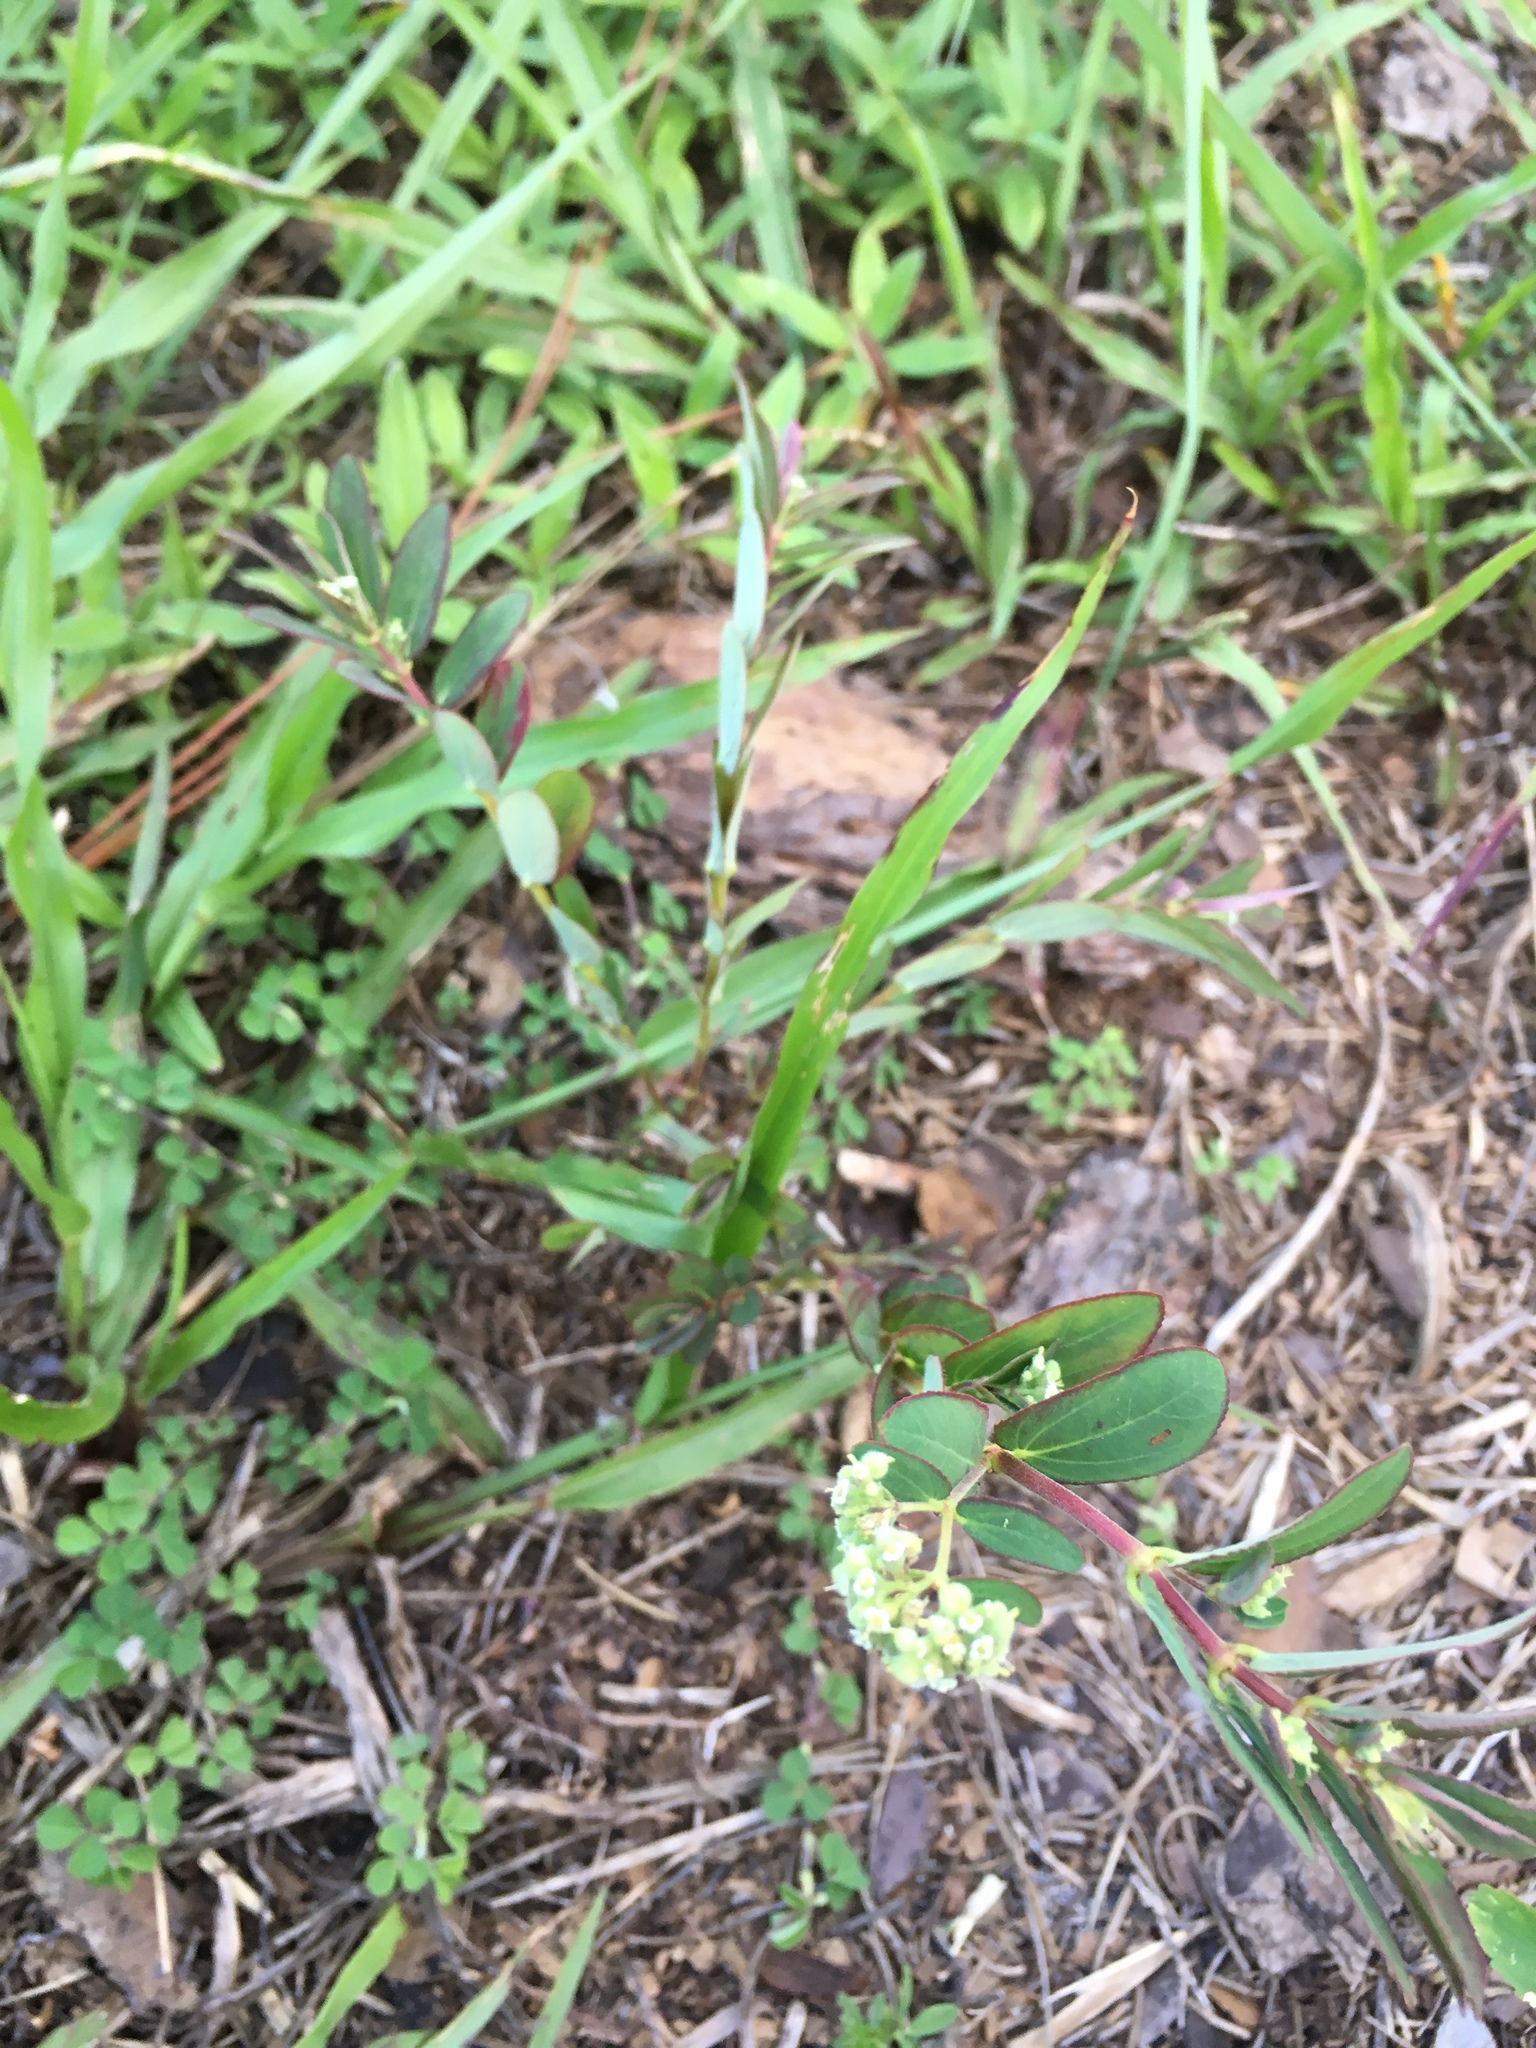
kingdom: Plantae
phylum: Tracheophyta
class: Magnoliopsida
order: Malpighiales
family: Euphorbiaceae
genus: Euphorbia
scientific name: Euphorbia lasiocarpa
